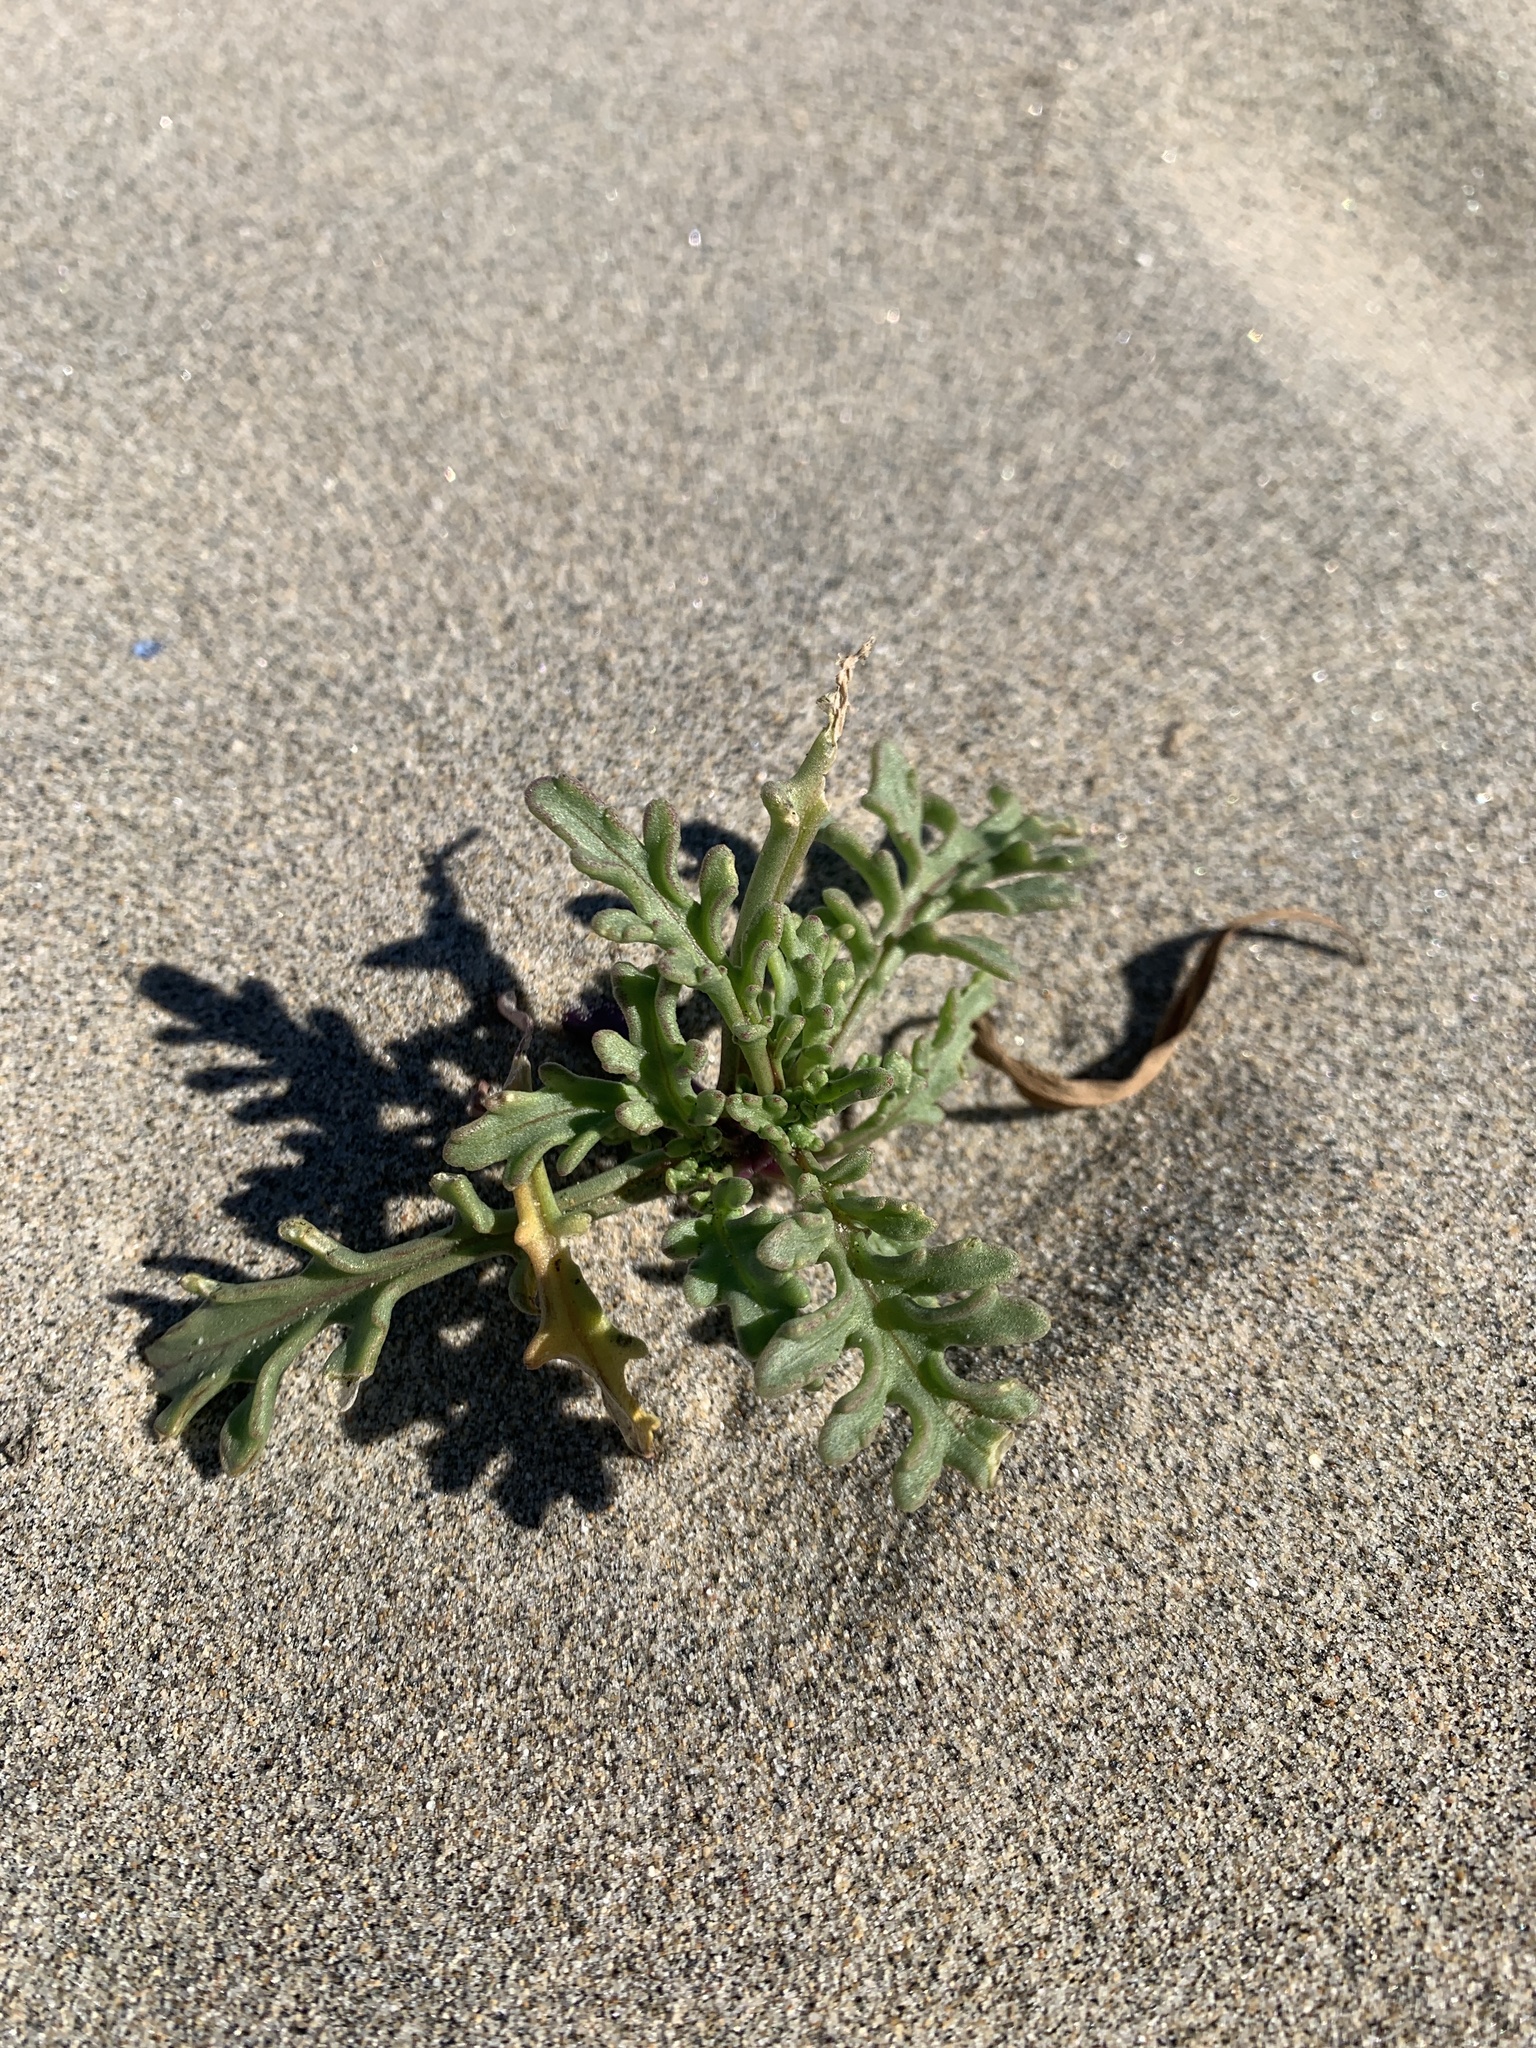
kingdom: Plantae
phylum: Tracheophyta
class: Magnoliopsida
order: Brassicales
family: Brassicaceae
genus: Cakile
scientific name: Cakile maritima
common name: Sea rocket
